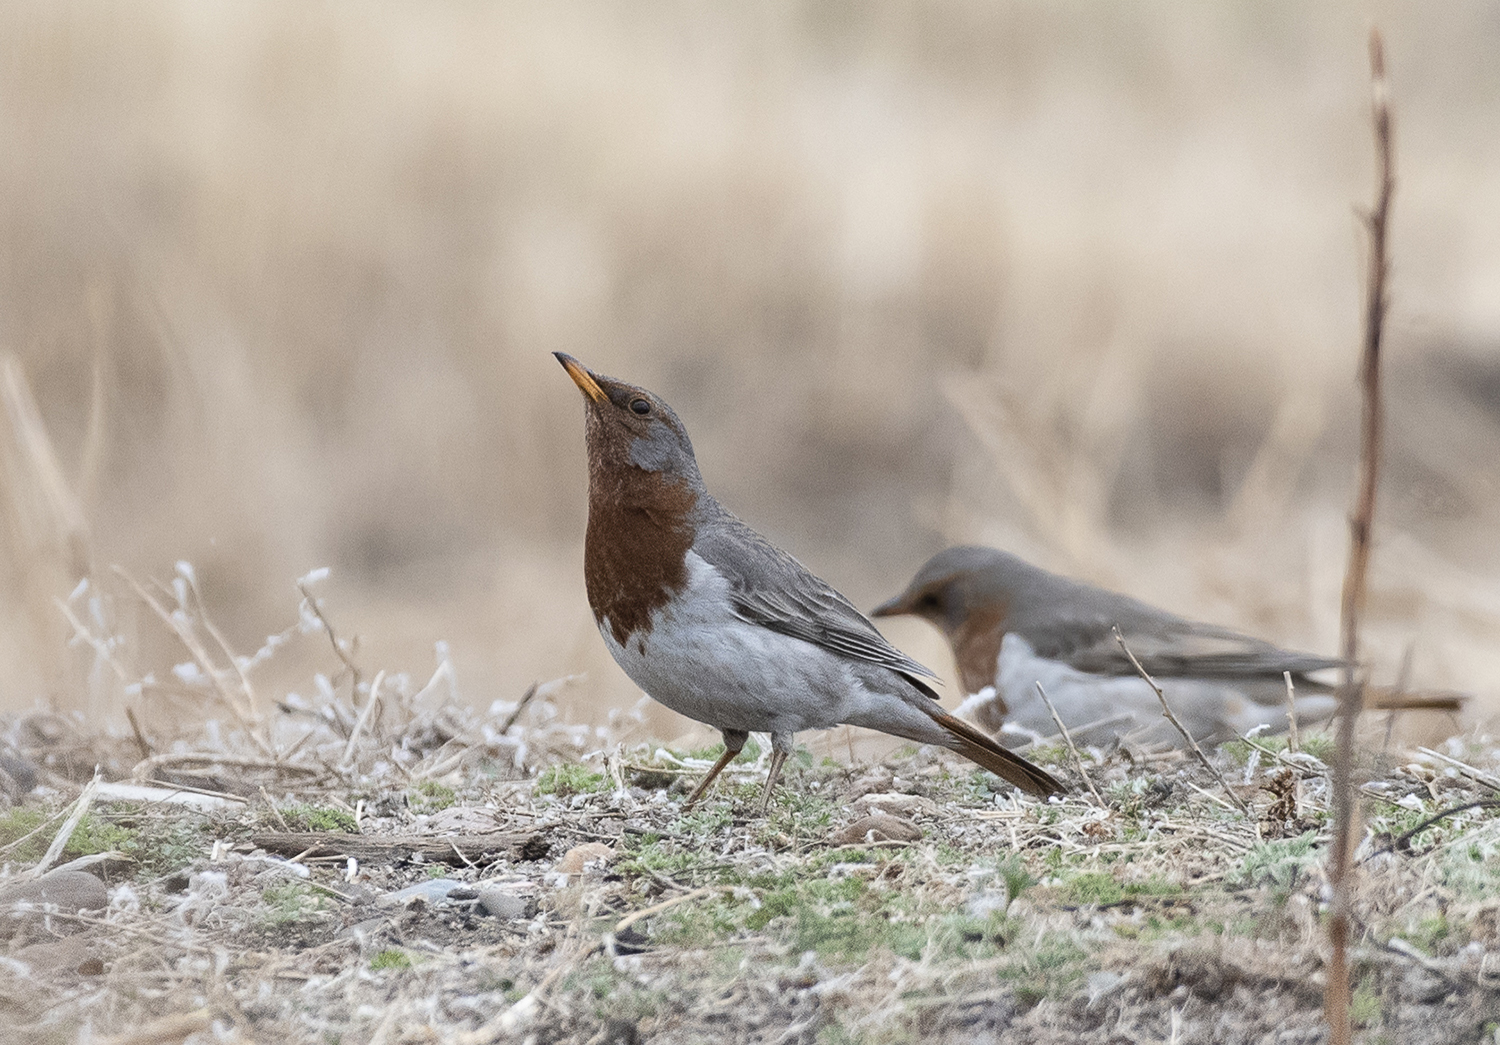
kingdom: Animalia
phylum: Chordata
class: Aves
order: Passeriformes
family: Turdidae
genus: Turdus
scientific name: Turdus ruficollis
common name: Red-throated thrush
